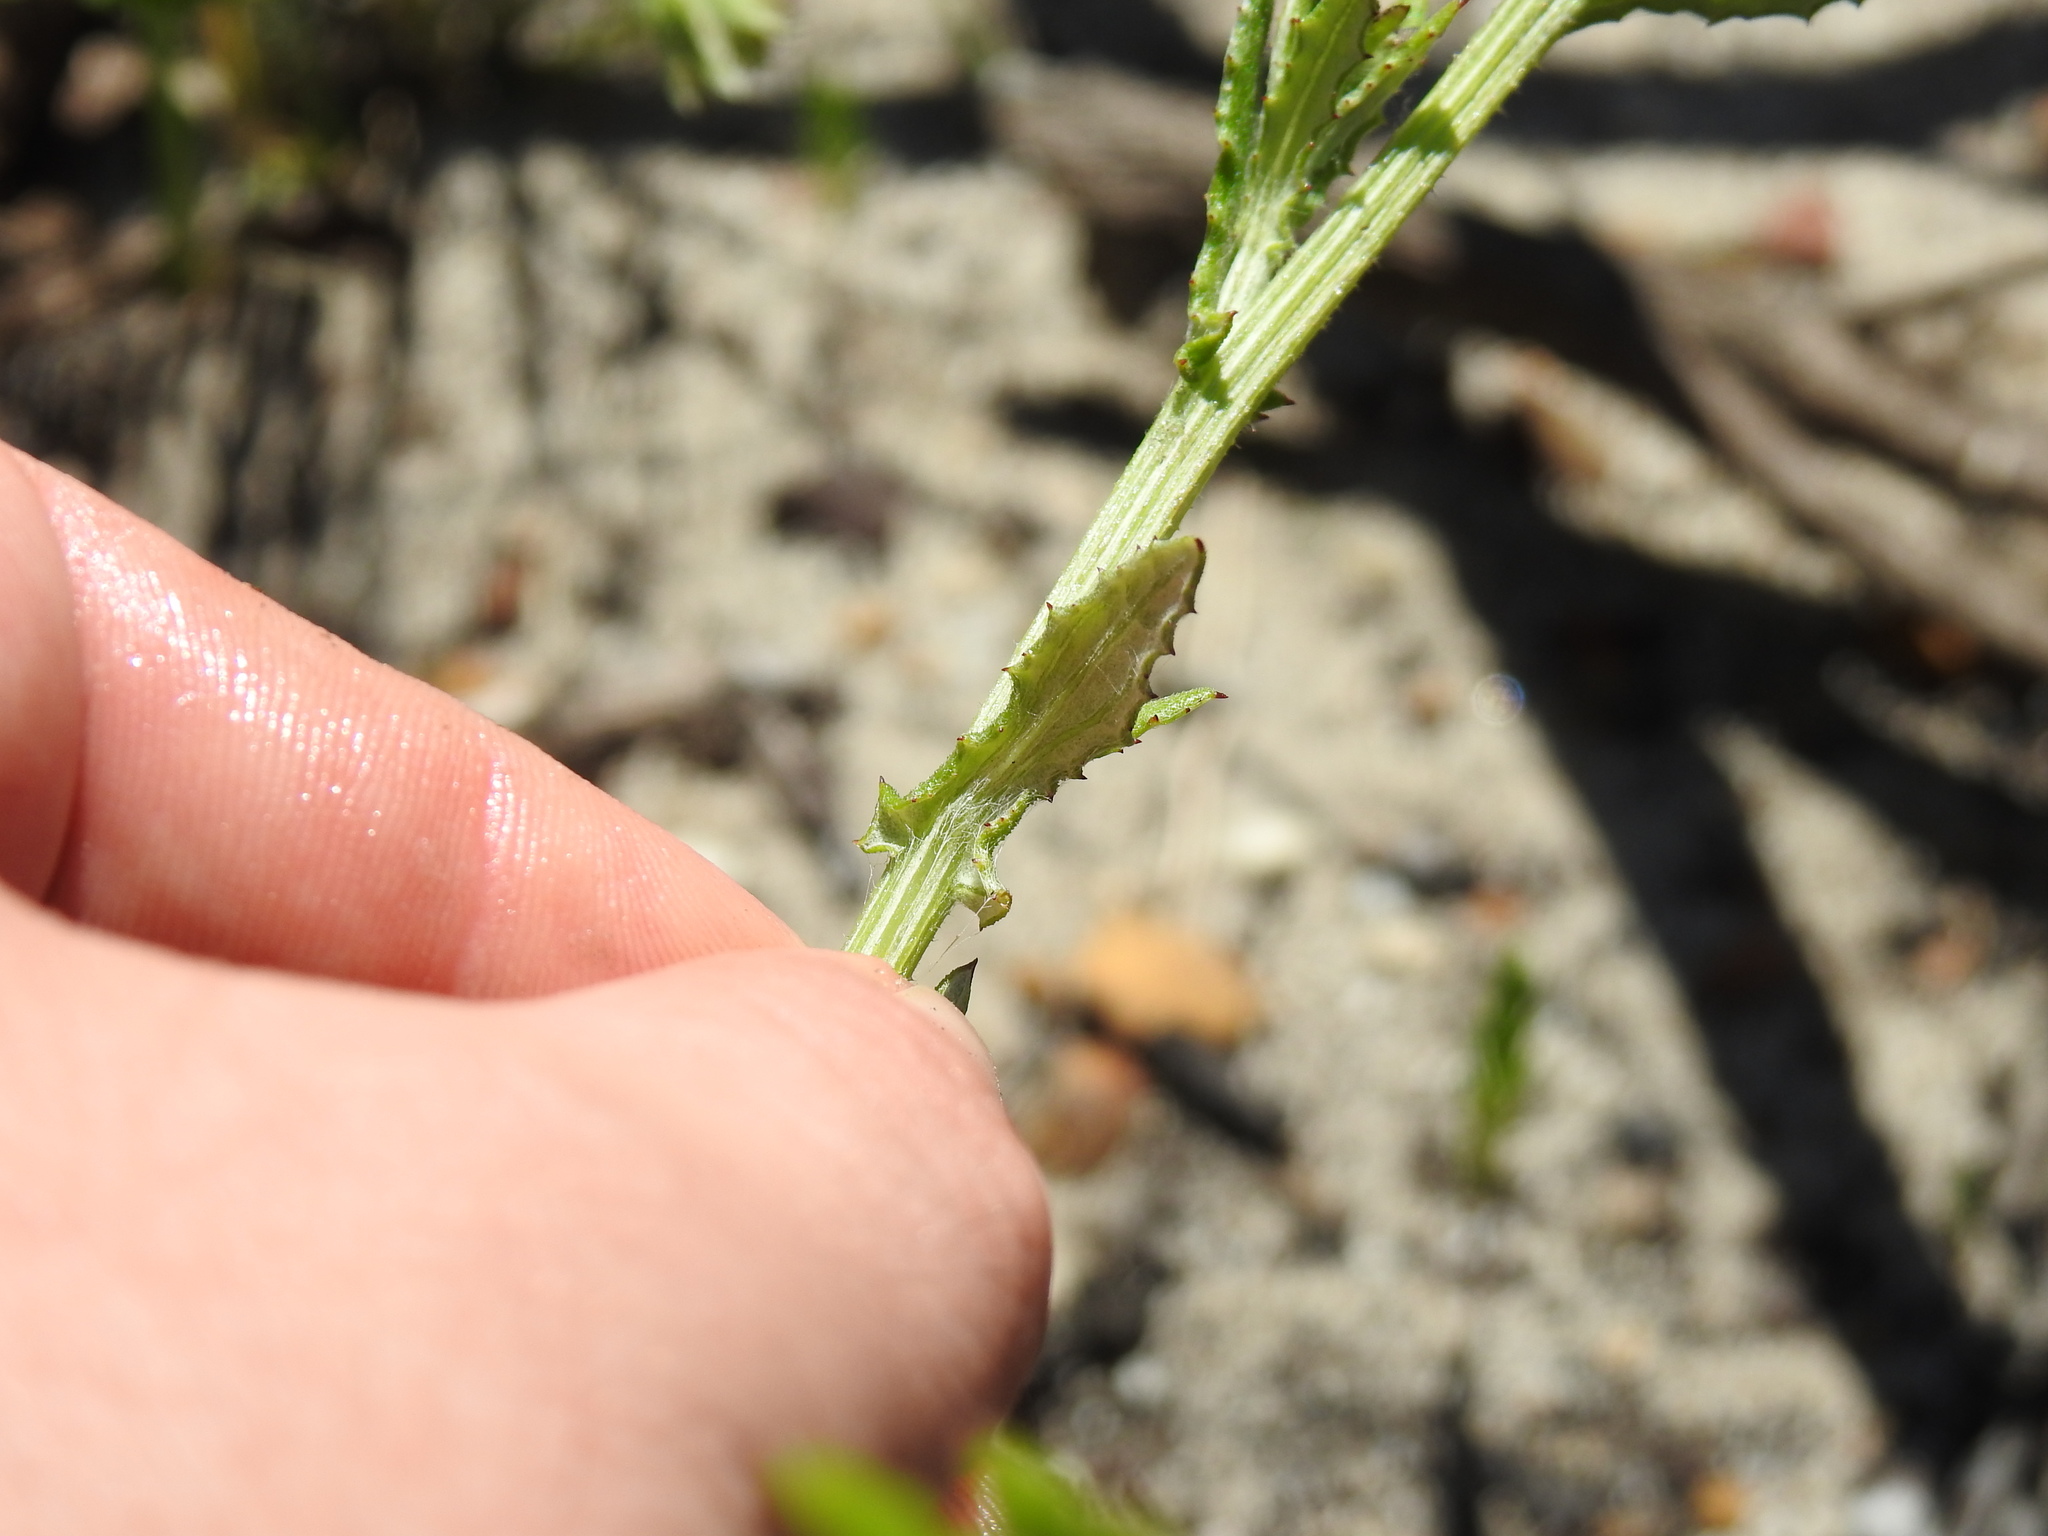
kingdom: Plantae
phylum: Tracheophyta
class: Magnoliopsida
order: Asterales
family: Asteraceae
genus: Arctotis
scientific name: Arctotis scabra
